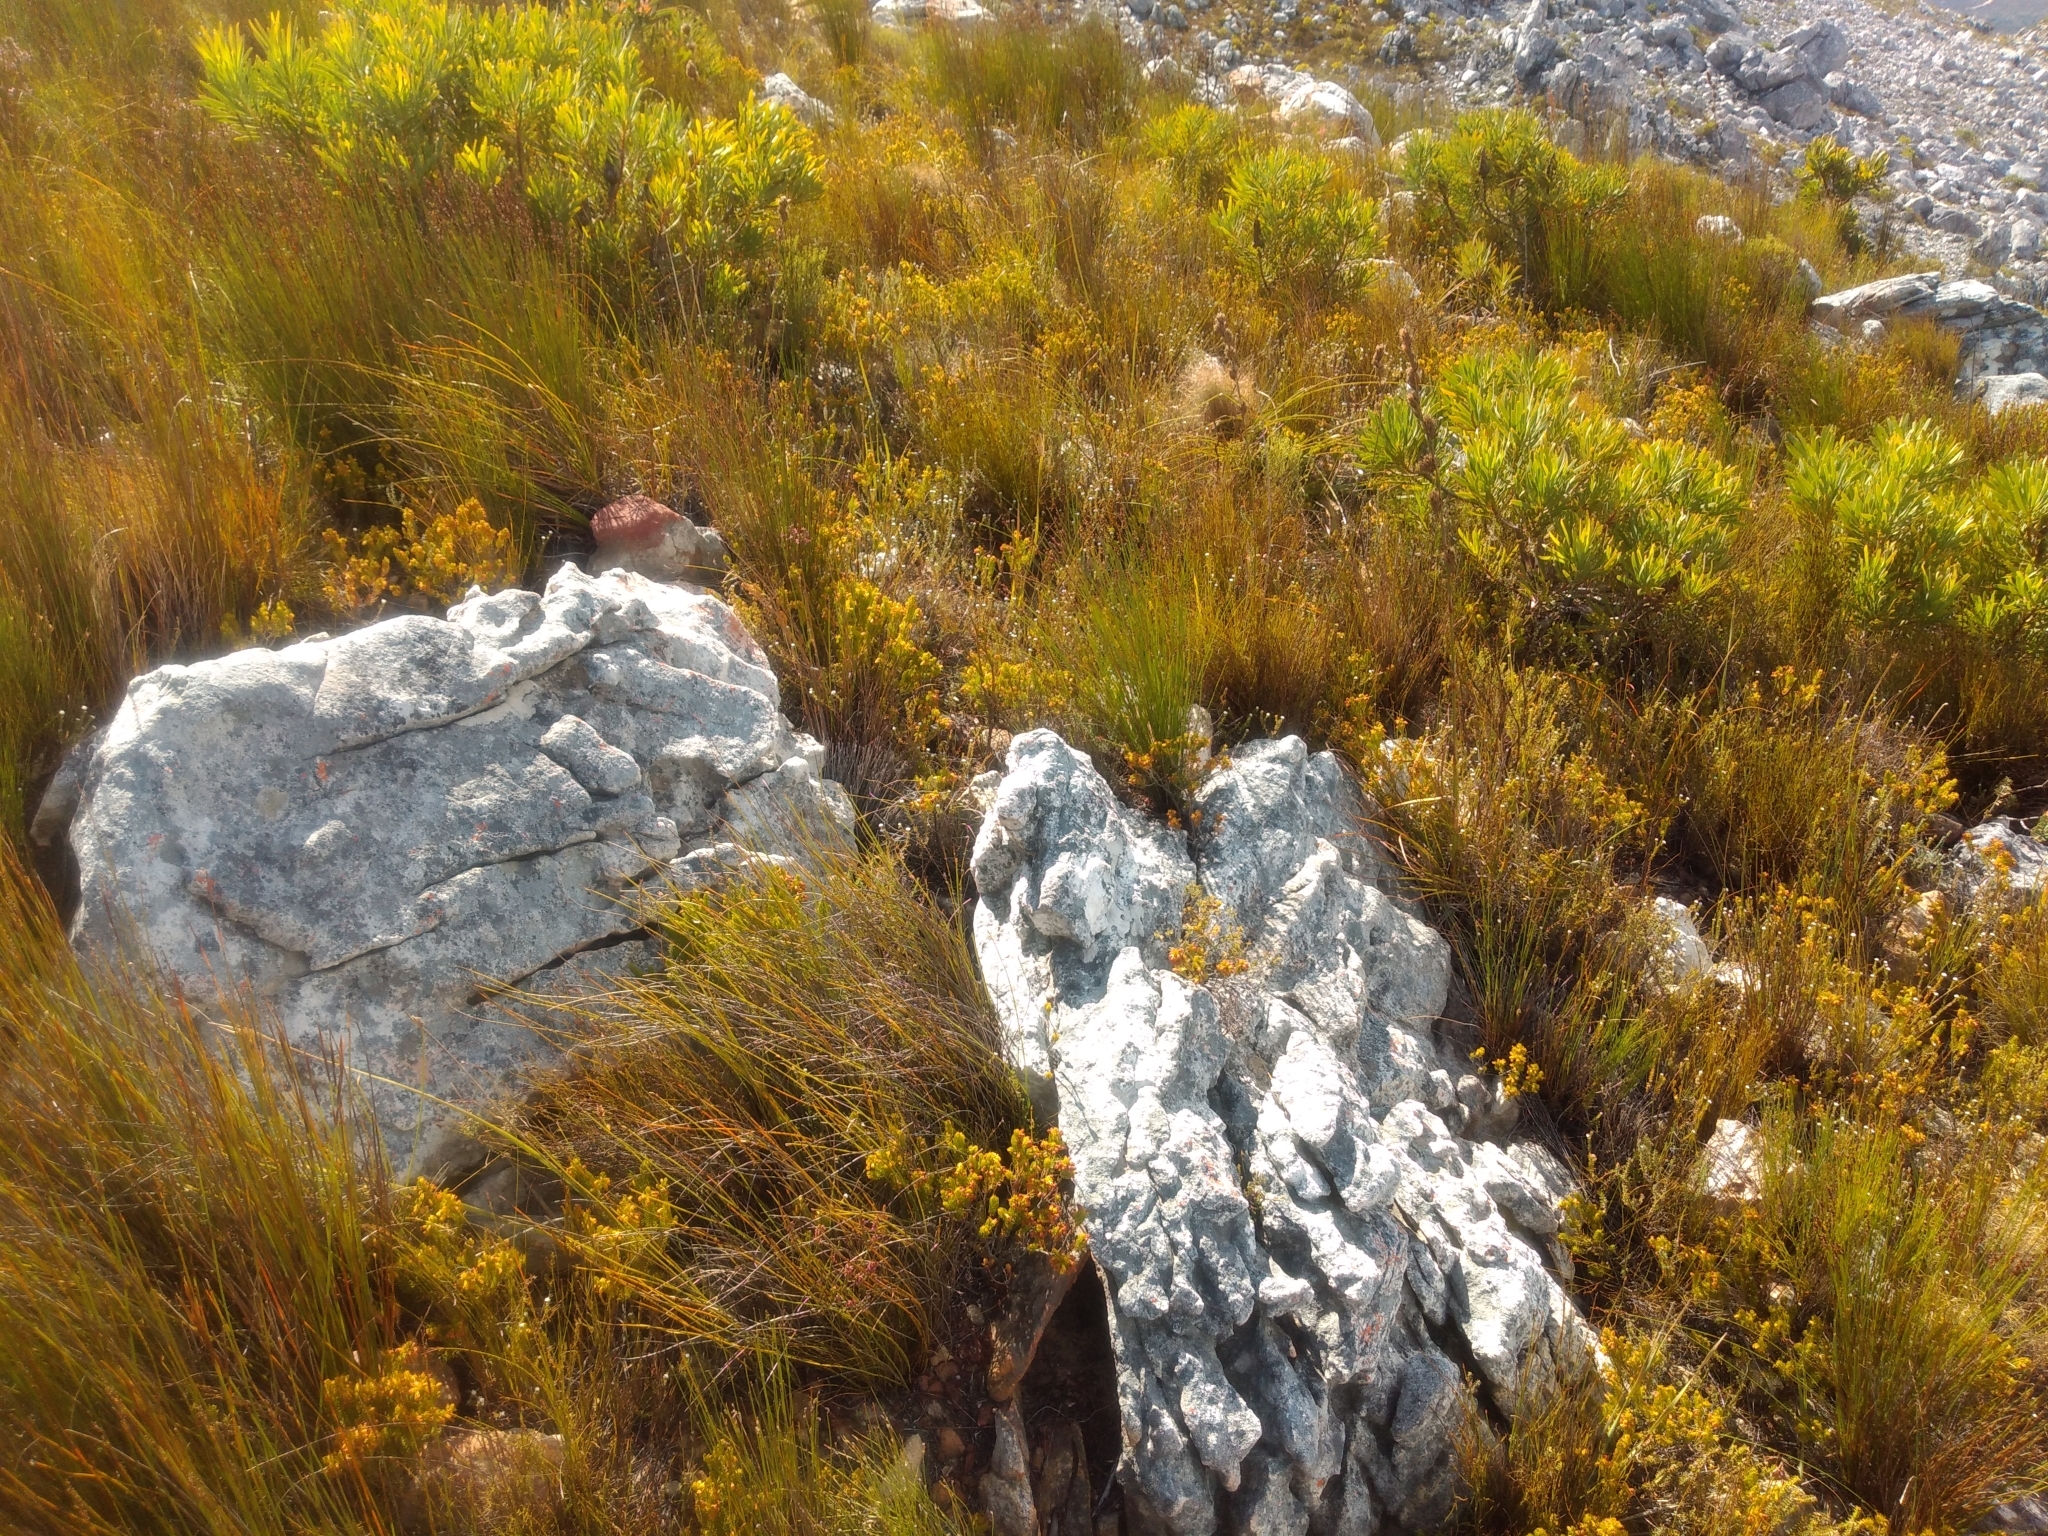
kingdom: Plantae
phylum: Tracheophyta
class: Magnoliopsida
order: Ericales
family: Ericaceae
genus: Erica
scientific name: Erica petrusiana
